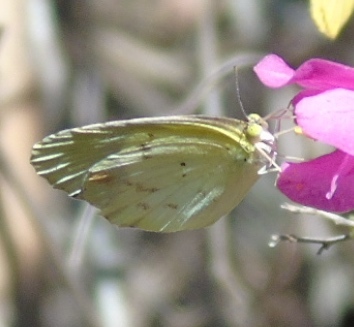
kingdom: Animalia
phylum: Arthropoda
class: Insecta
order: Lepidoptera
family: Pieridae
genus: Pyrisitia
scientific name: Pyrisitia nise
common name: Mimosa yellow
